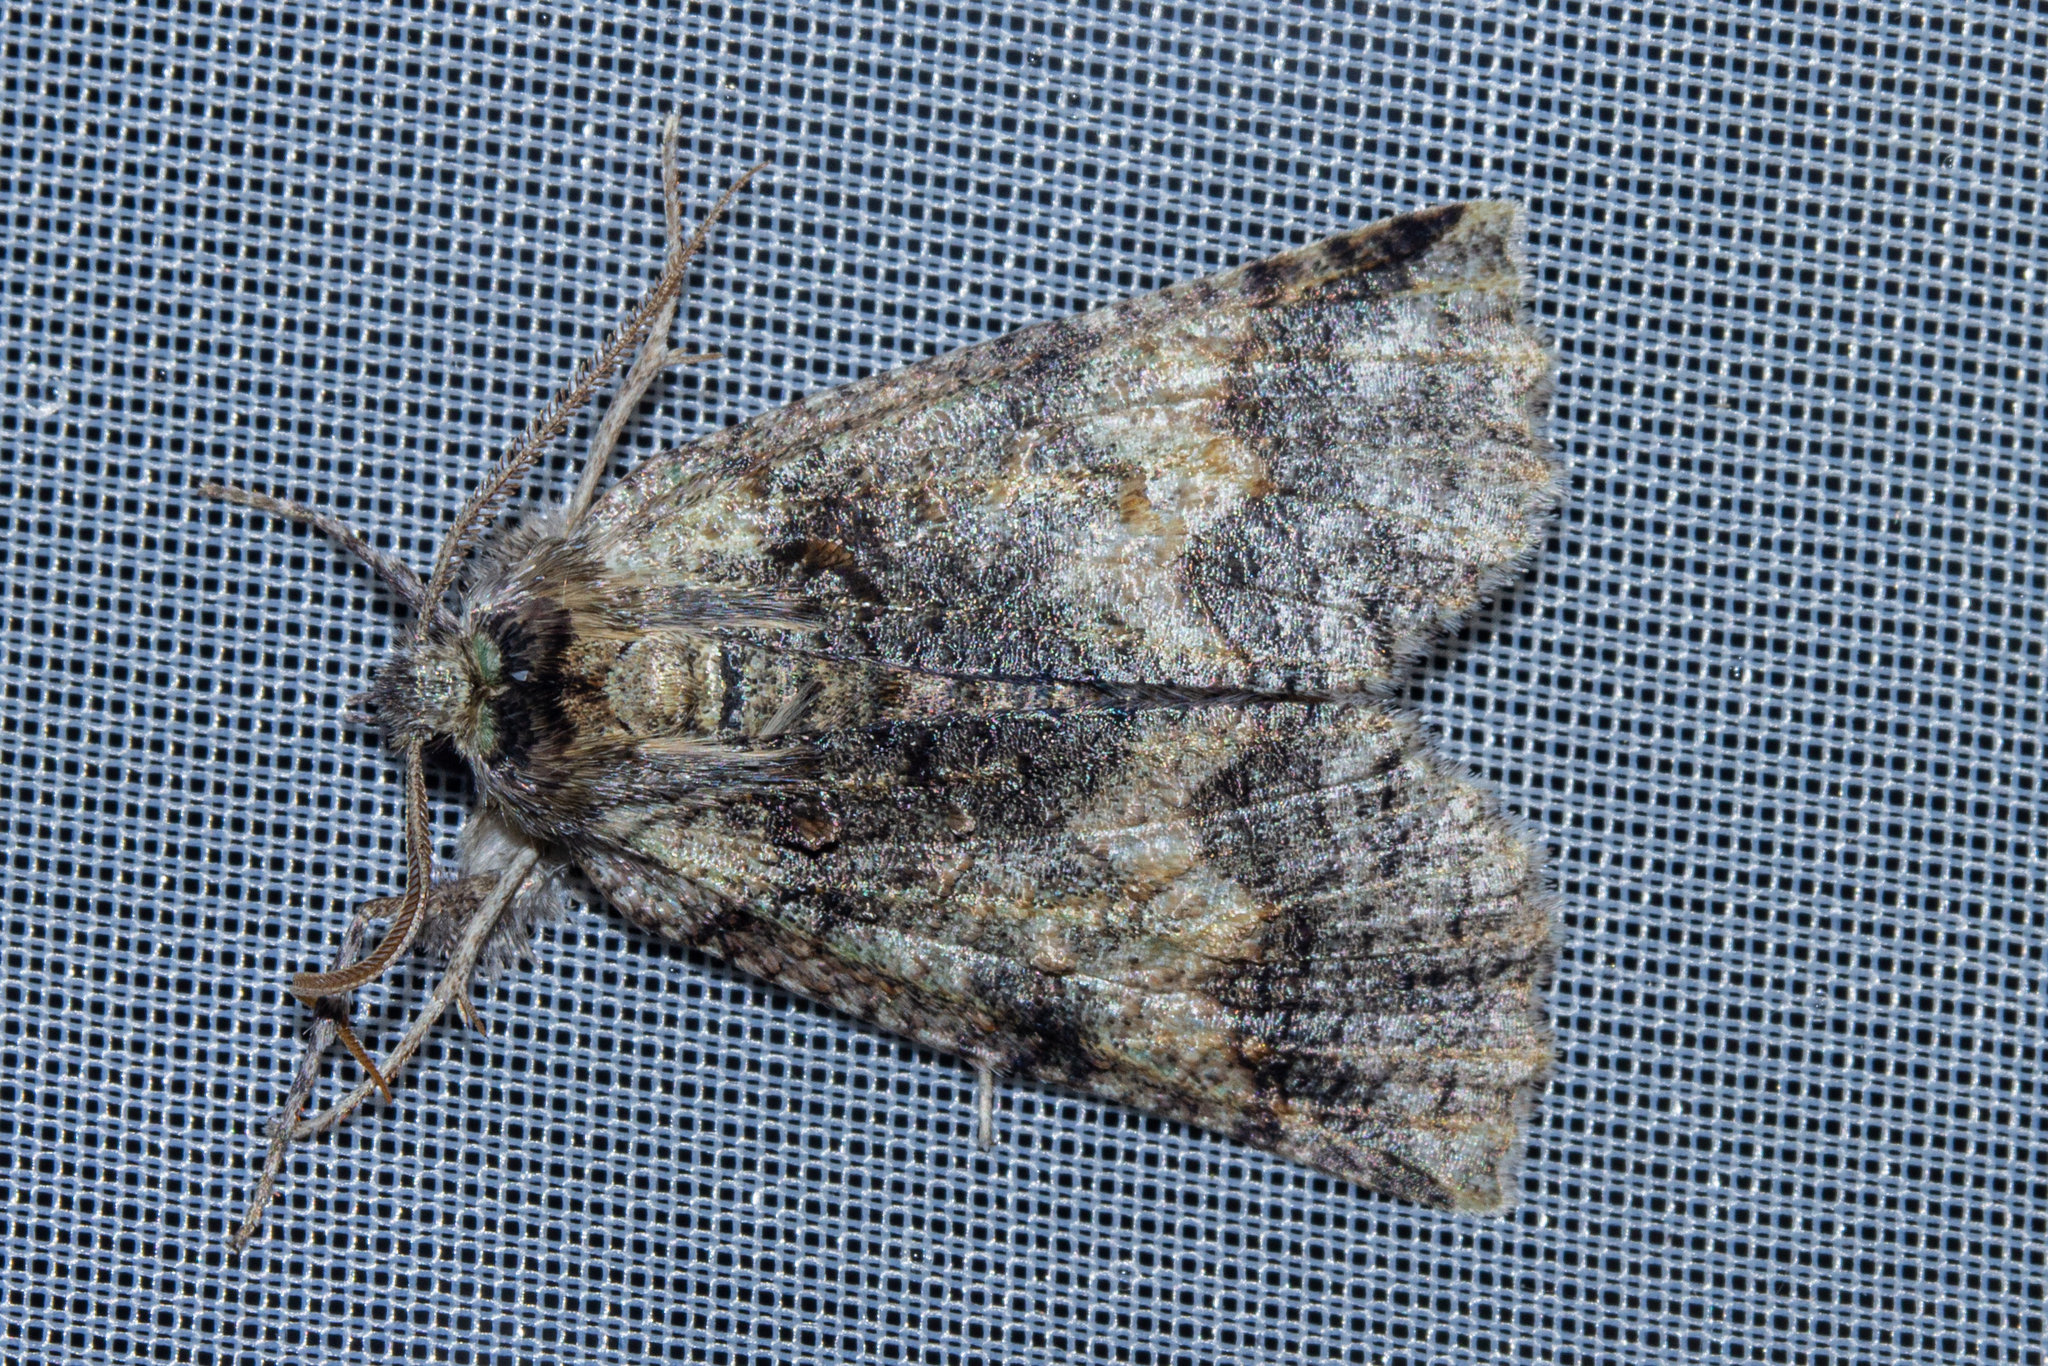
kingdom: Animalia
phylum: Arthropoda
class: Insecta
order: Lepidoptera
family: Geometridae
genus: Declana
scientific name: Declana floccosa
